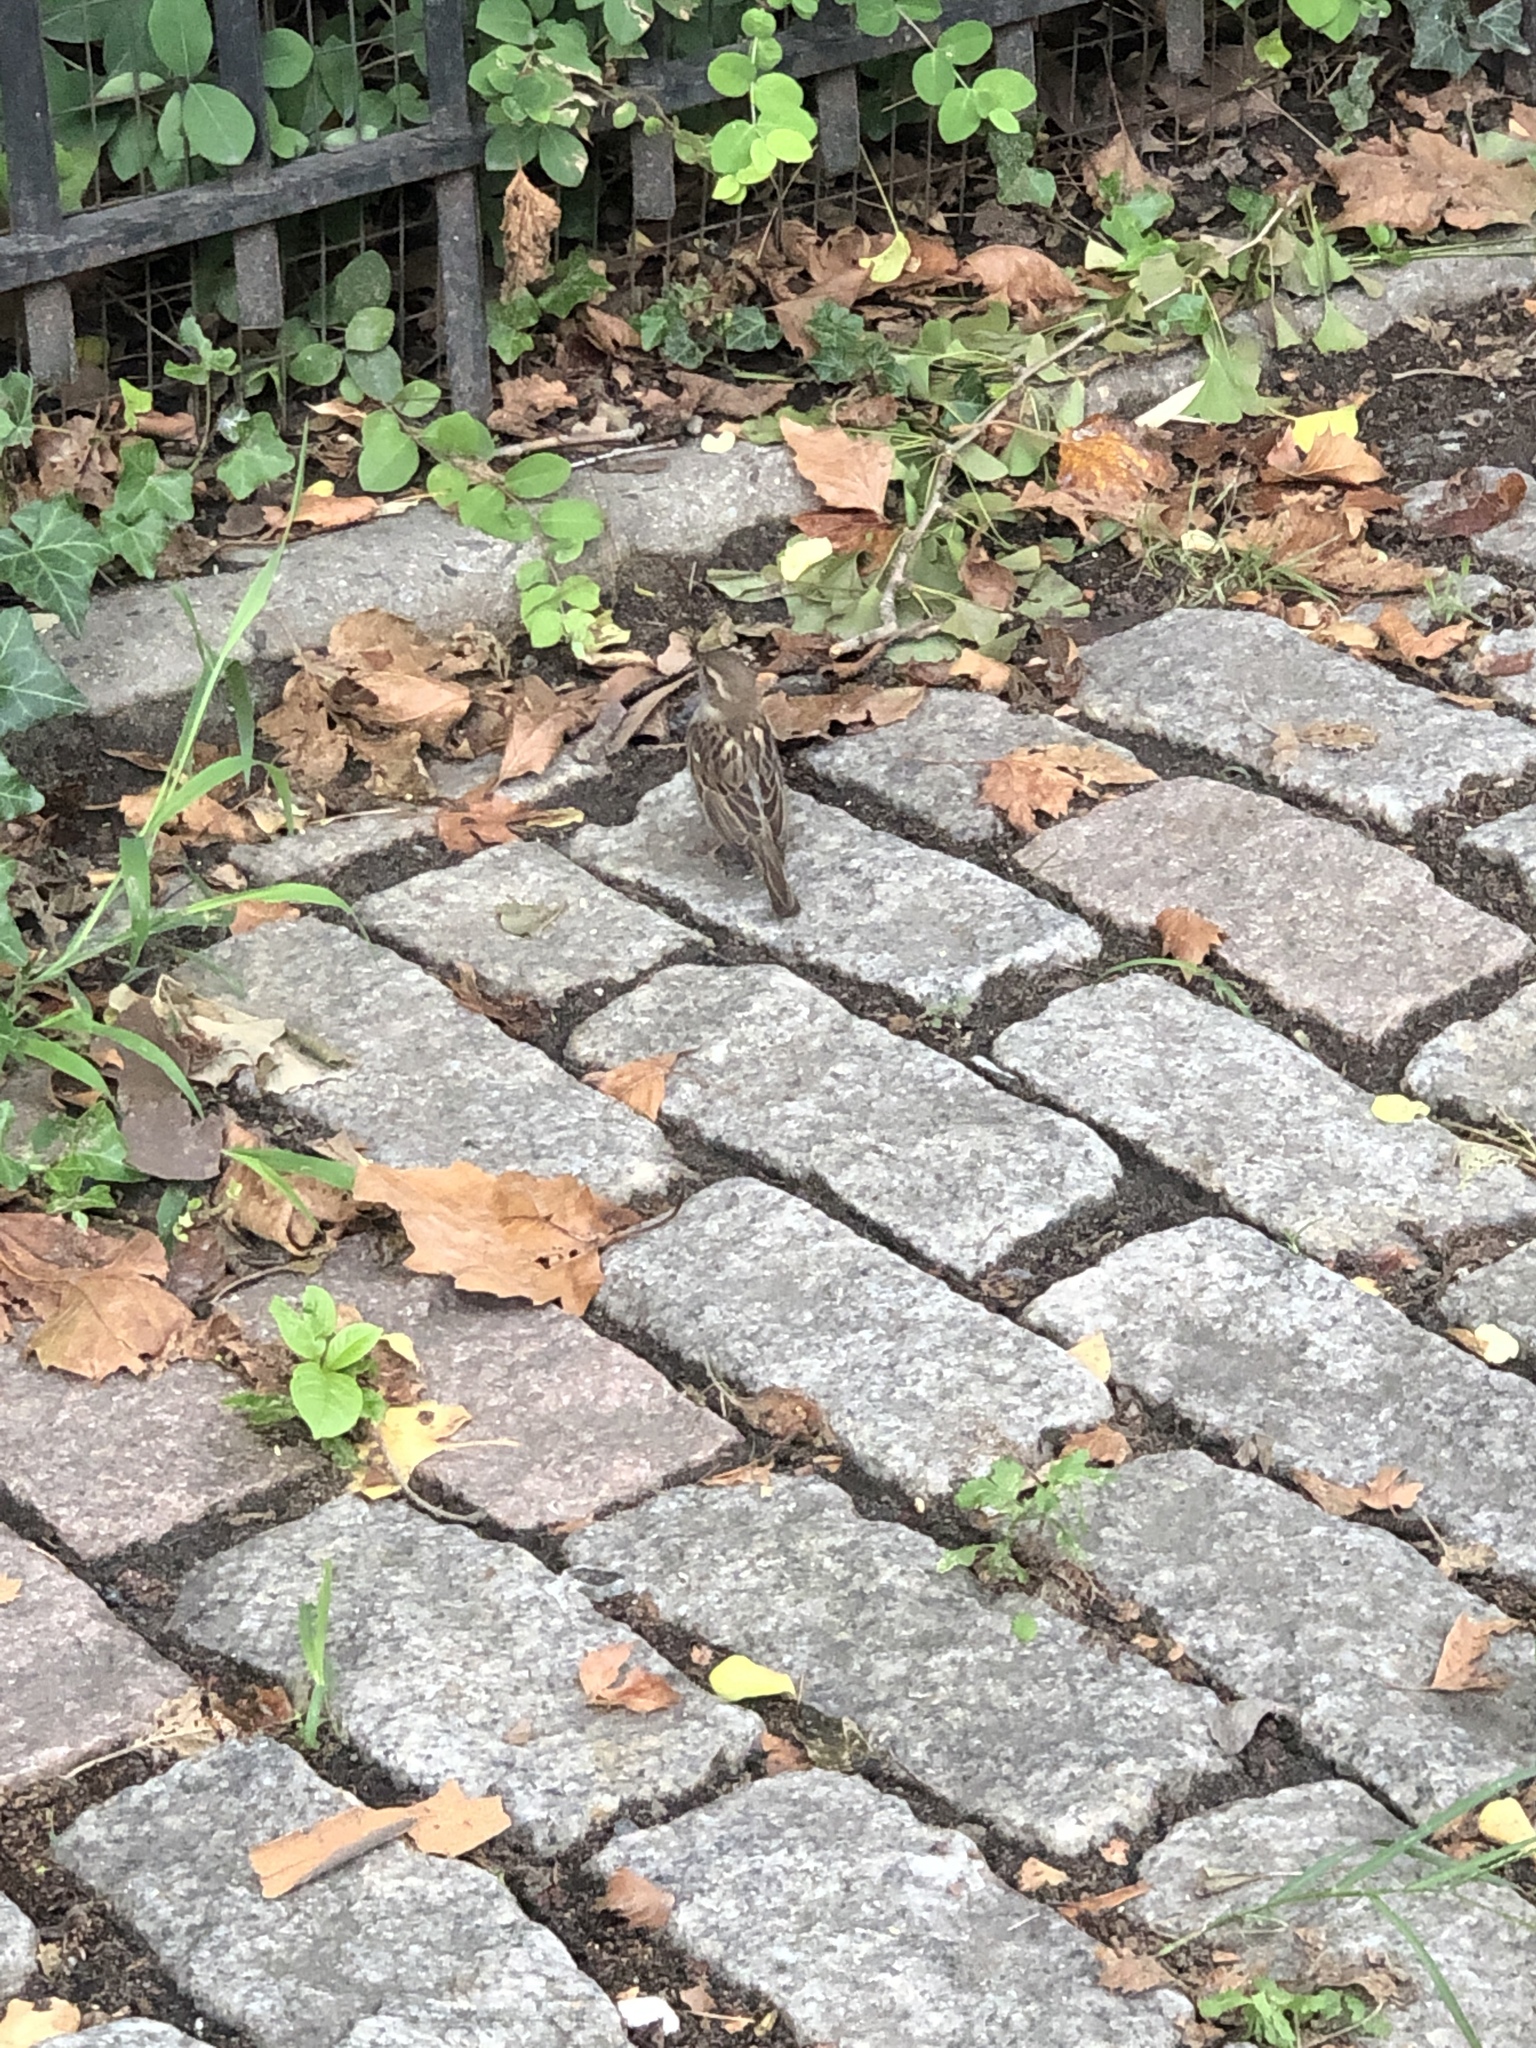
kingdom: Animalia
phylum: Chordata
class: Aves
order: Passeriformes
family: Passeridae
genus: Passer
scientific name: Passer domesticus
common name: House sparrow
